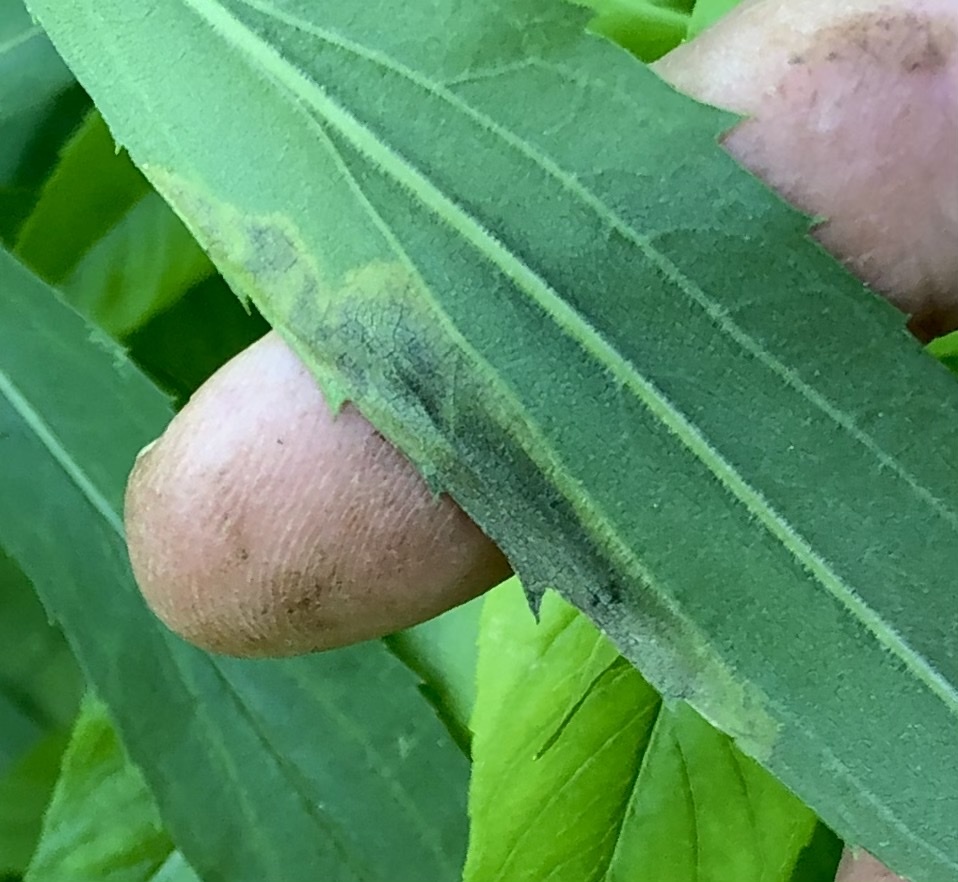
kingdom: Animalia
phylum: Arthropoda
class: Insecta
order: Diptera
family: Agromyzidae
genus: Nemorimyza
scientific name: Nemorimyza posticata
